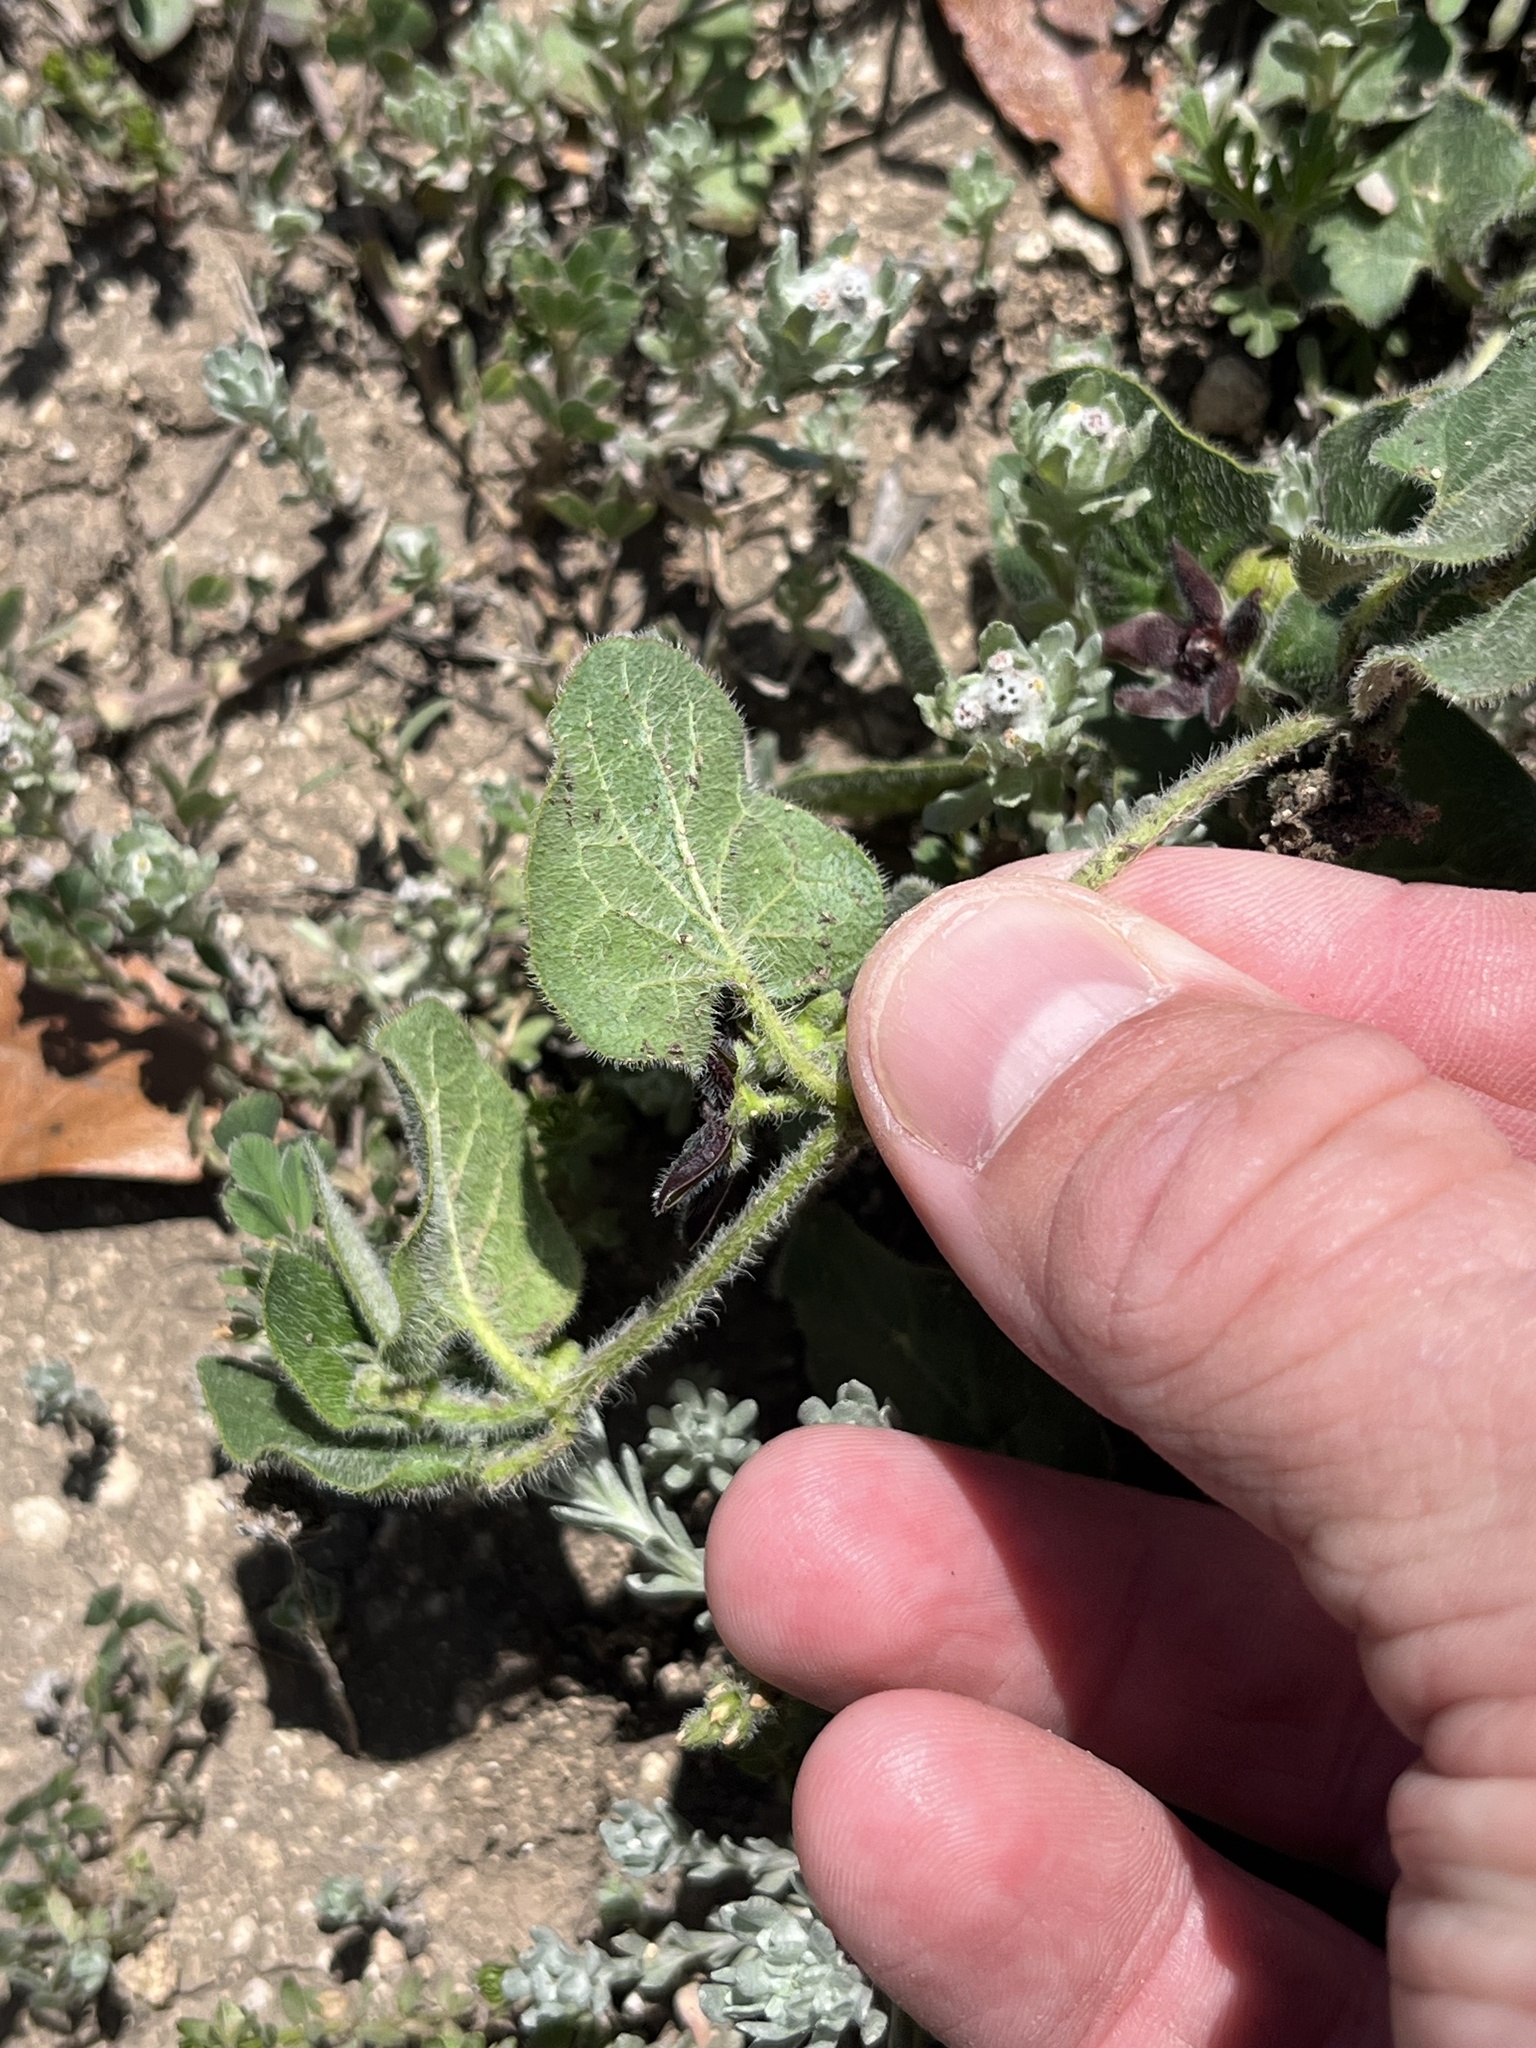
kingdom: Plantae
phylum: Tracheophyta
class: Magnoliopsida
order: Gentianales
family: Apocynaceae
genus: Chthamalia
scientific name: Chthamalia biflora
